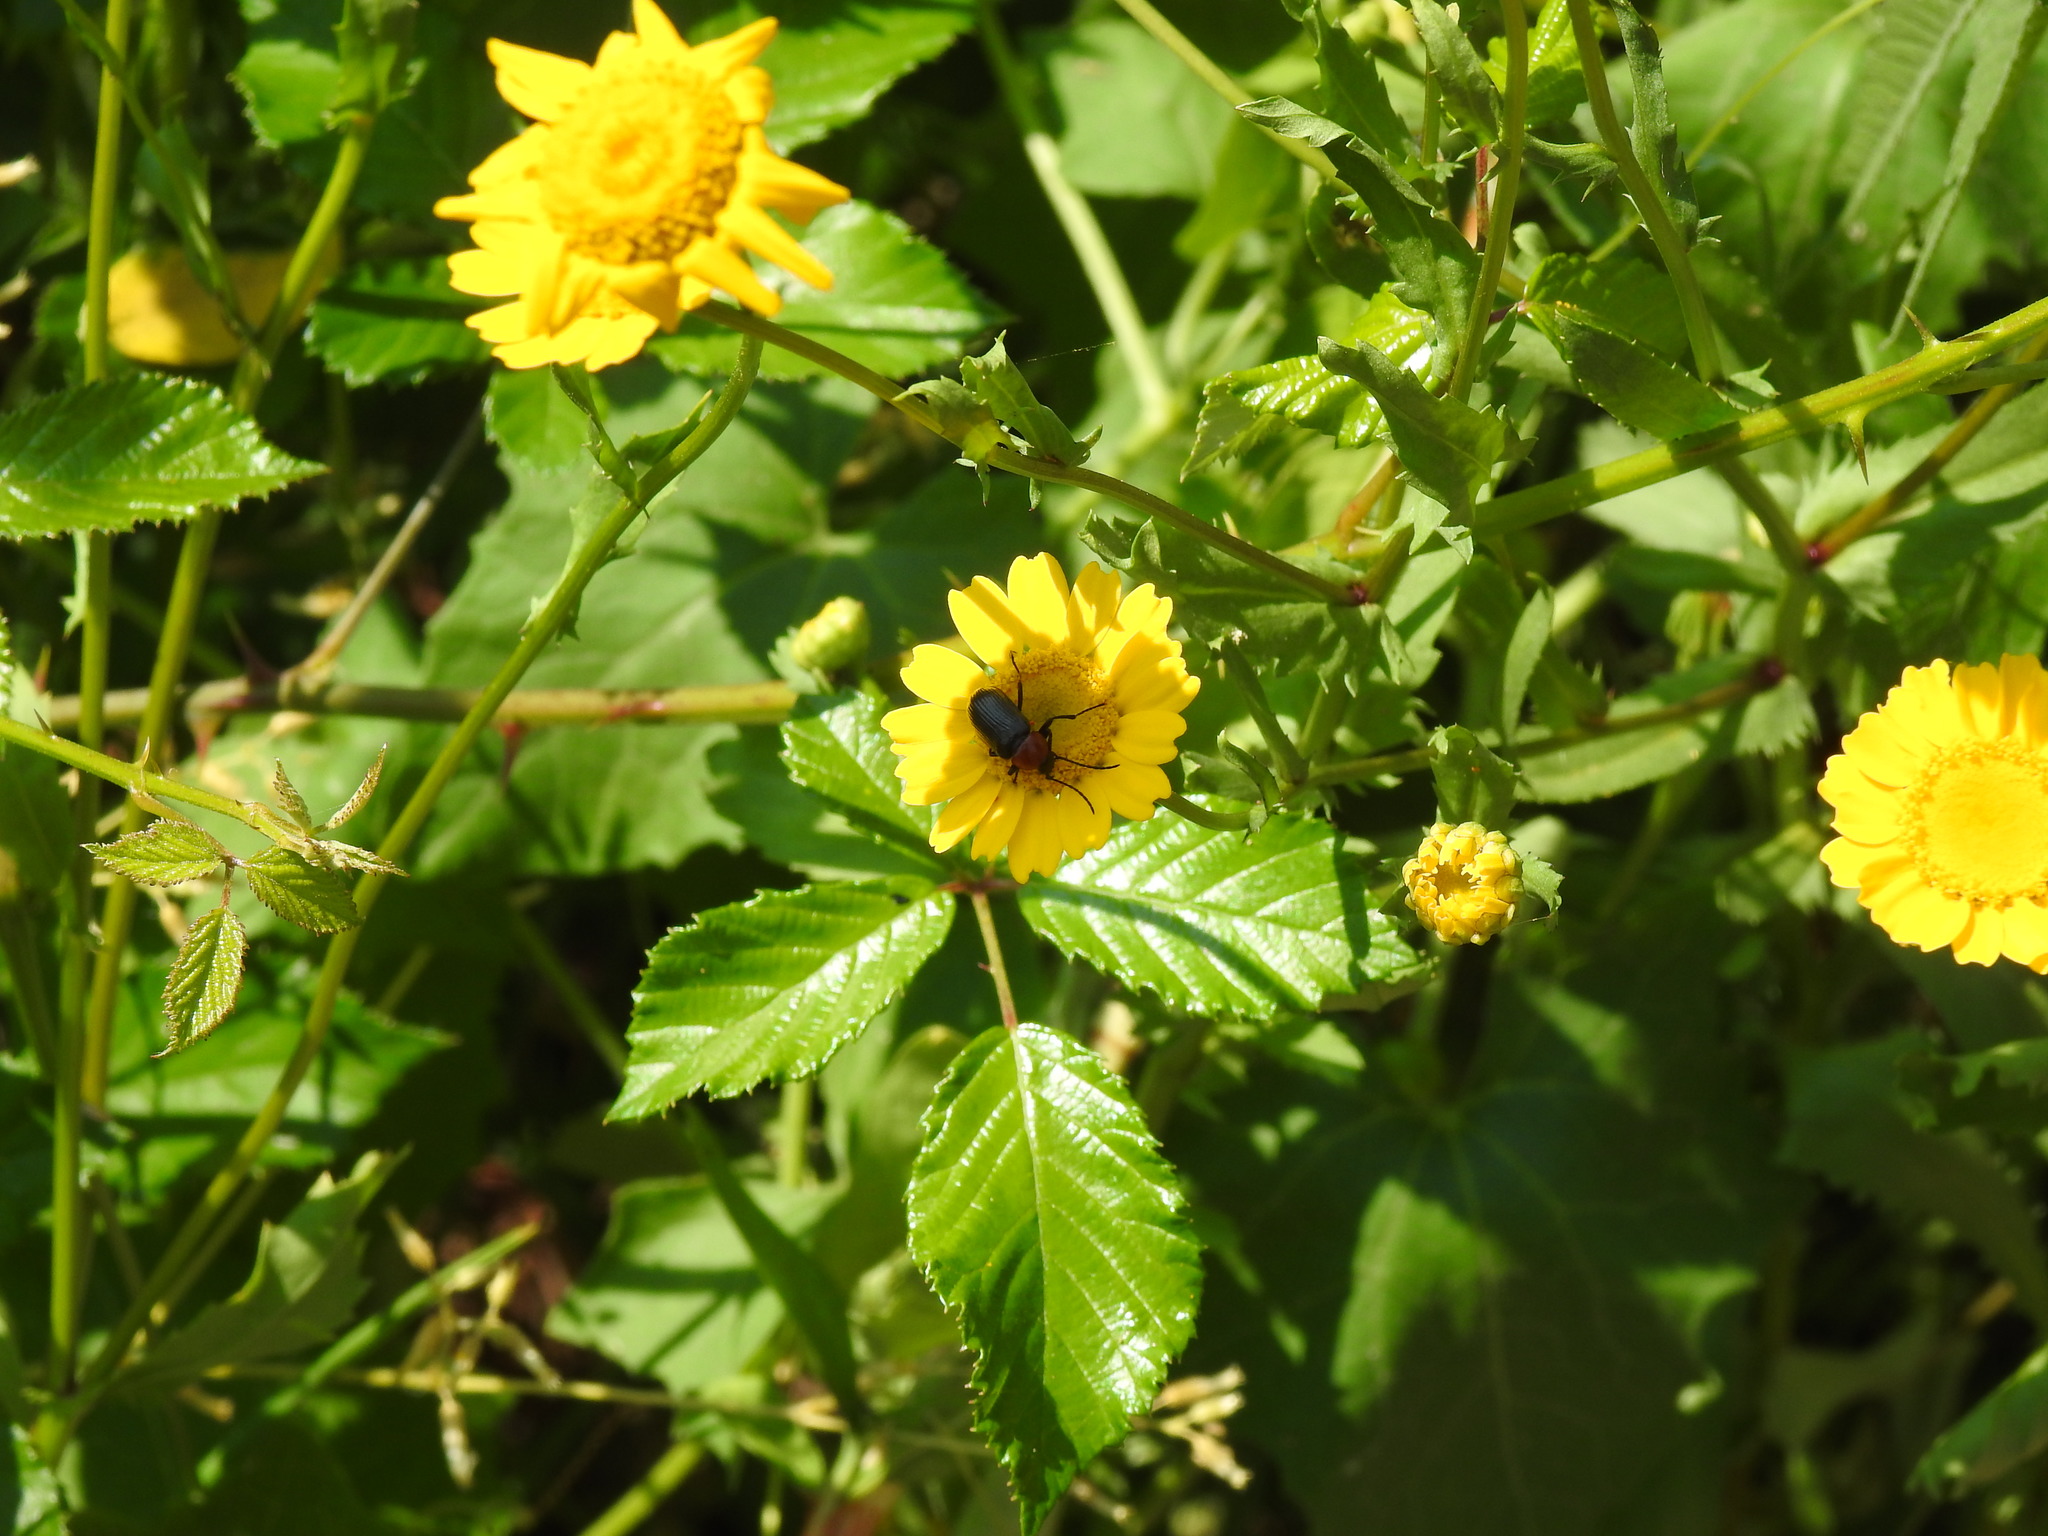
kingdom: Animalia
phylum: Arthropoda
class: Insecta
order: Coleoptera
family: Tenebrionidae
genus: Heliotaurus
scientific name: Heliotaurus ruficollis
